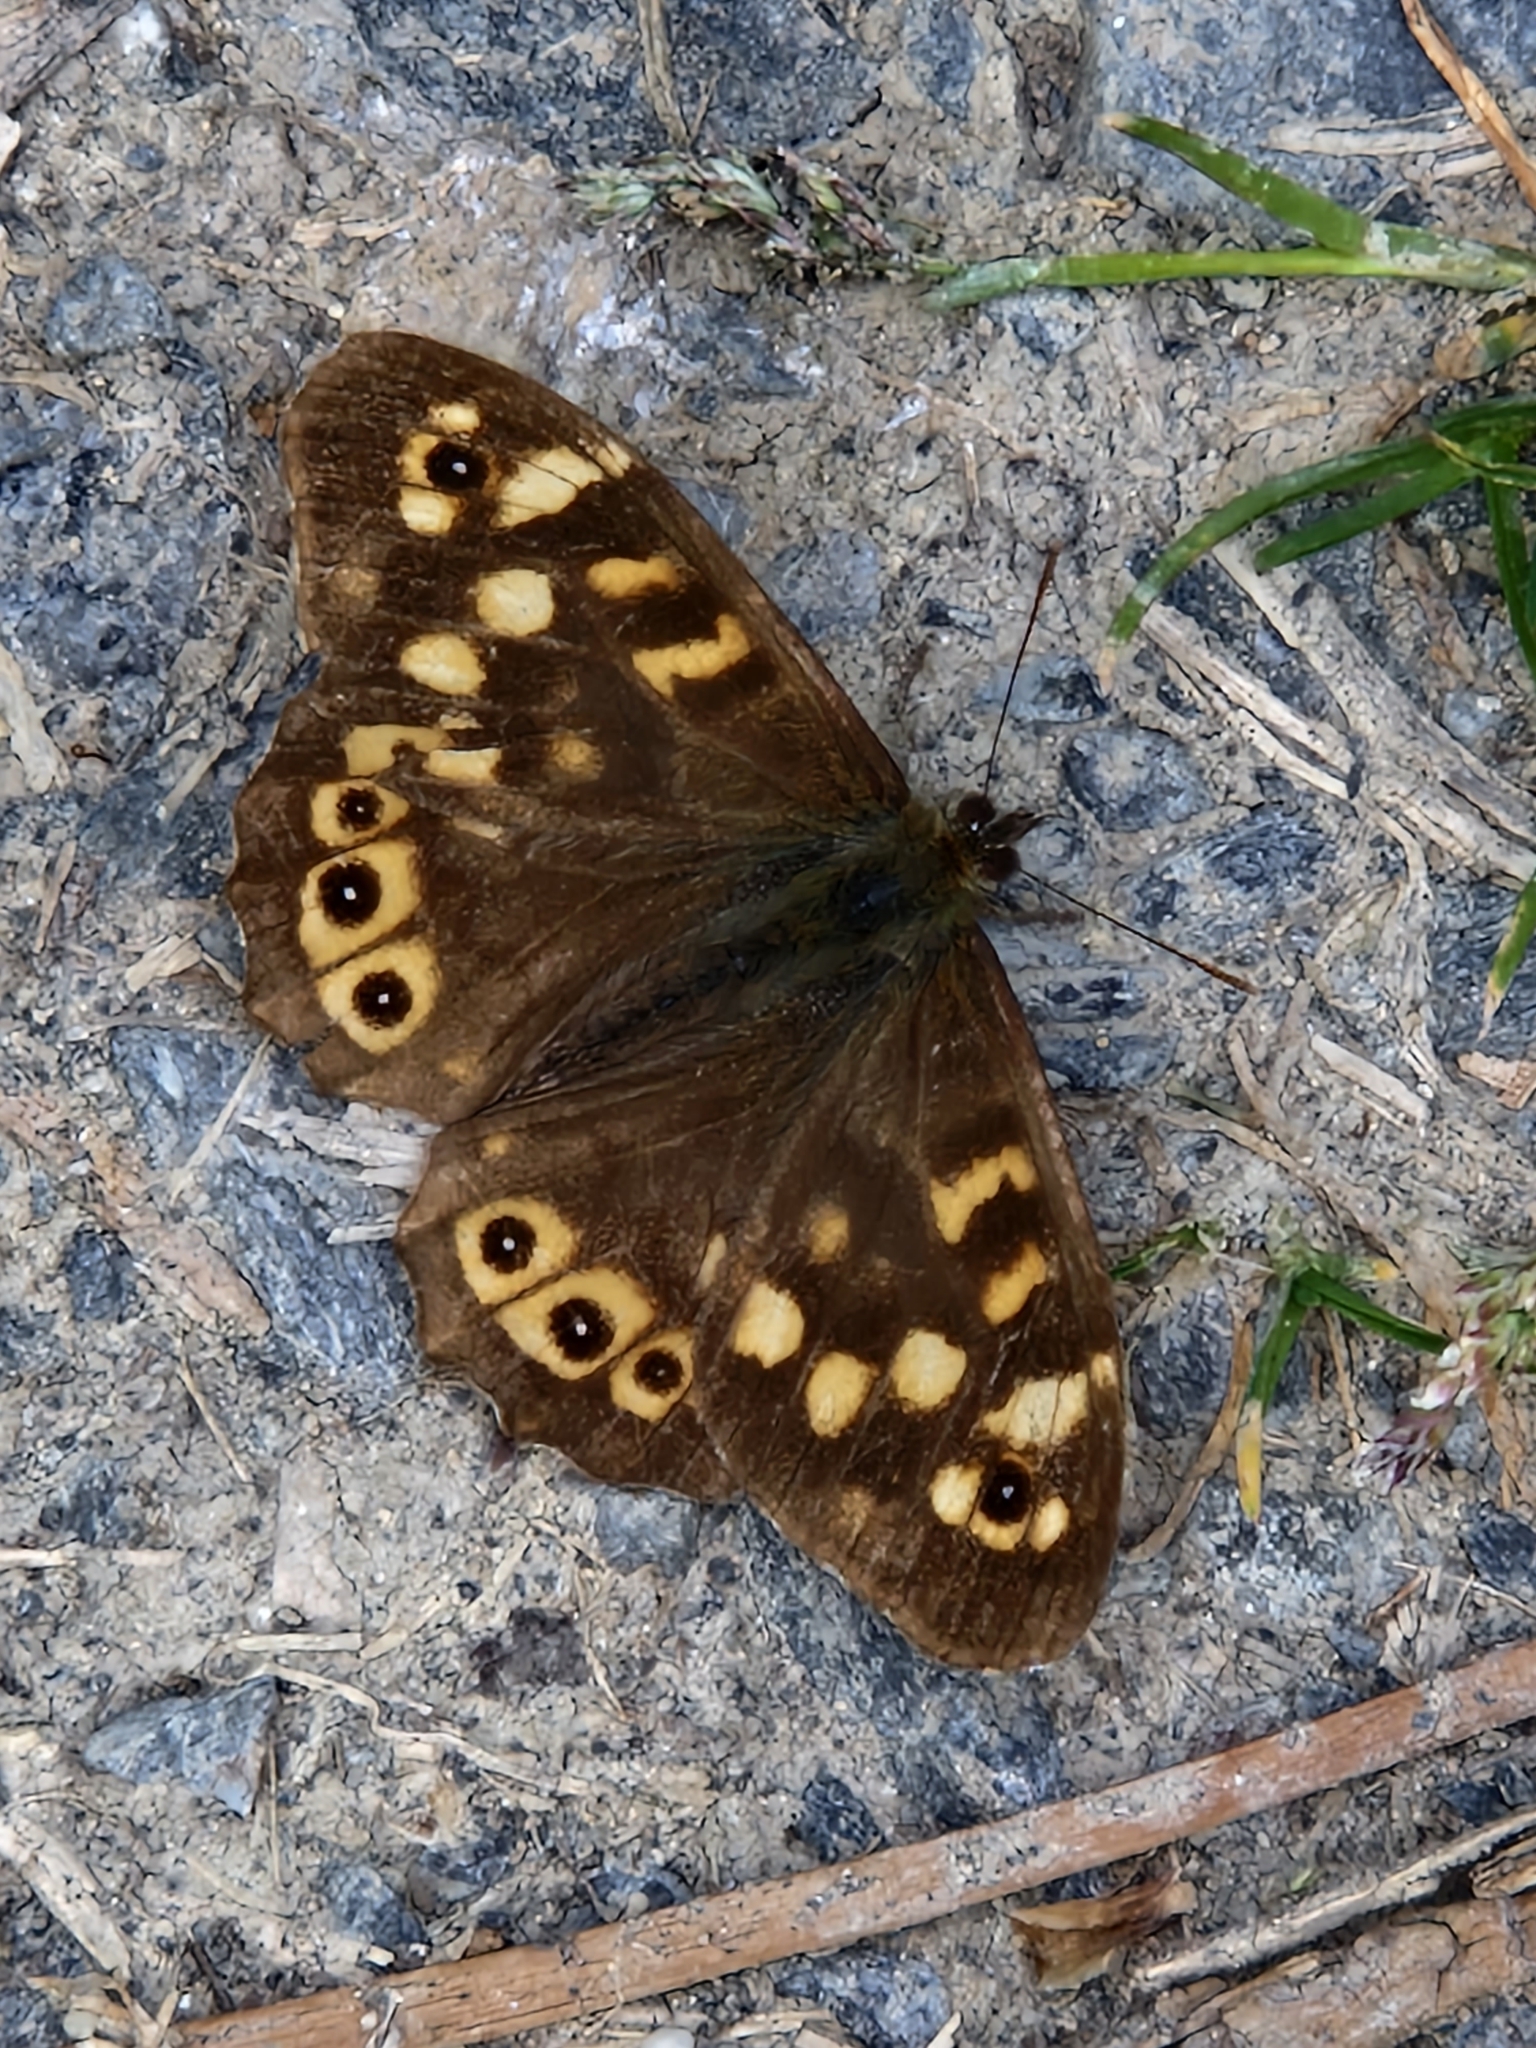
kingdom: Animalia
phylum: Arthropoda
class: Insecta
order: Lepidoptera
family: Nymphalidae
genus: Pararge
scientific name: Pararge aegeria
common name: Speckled wood
